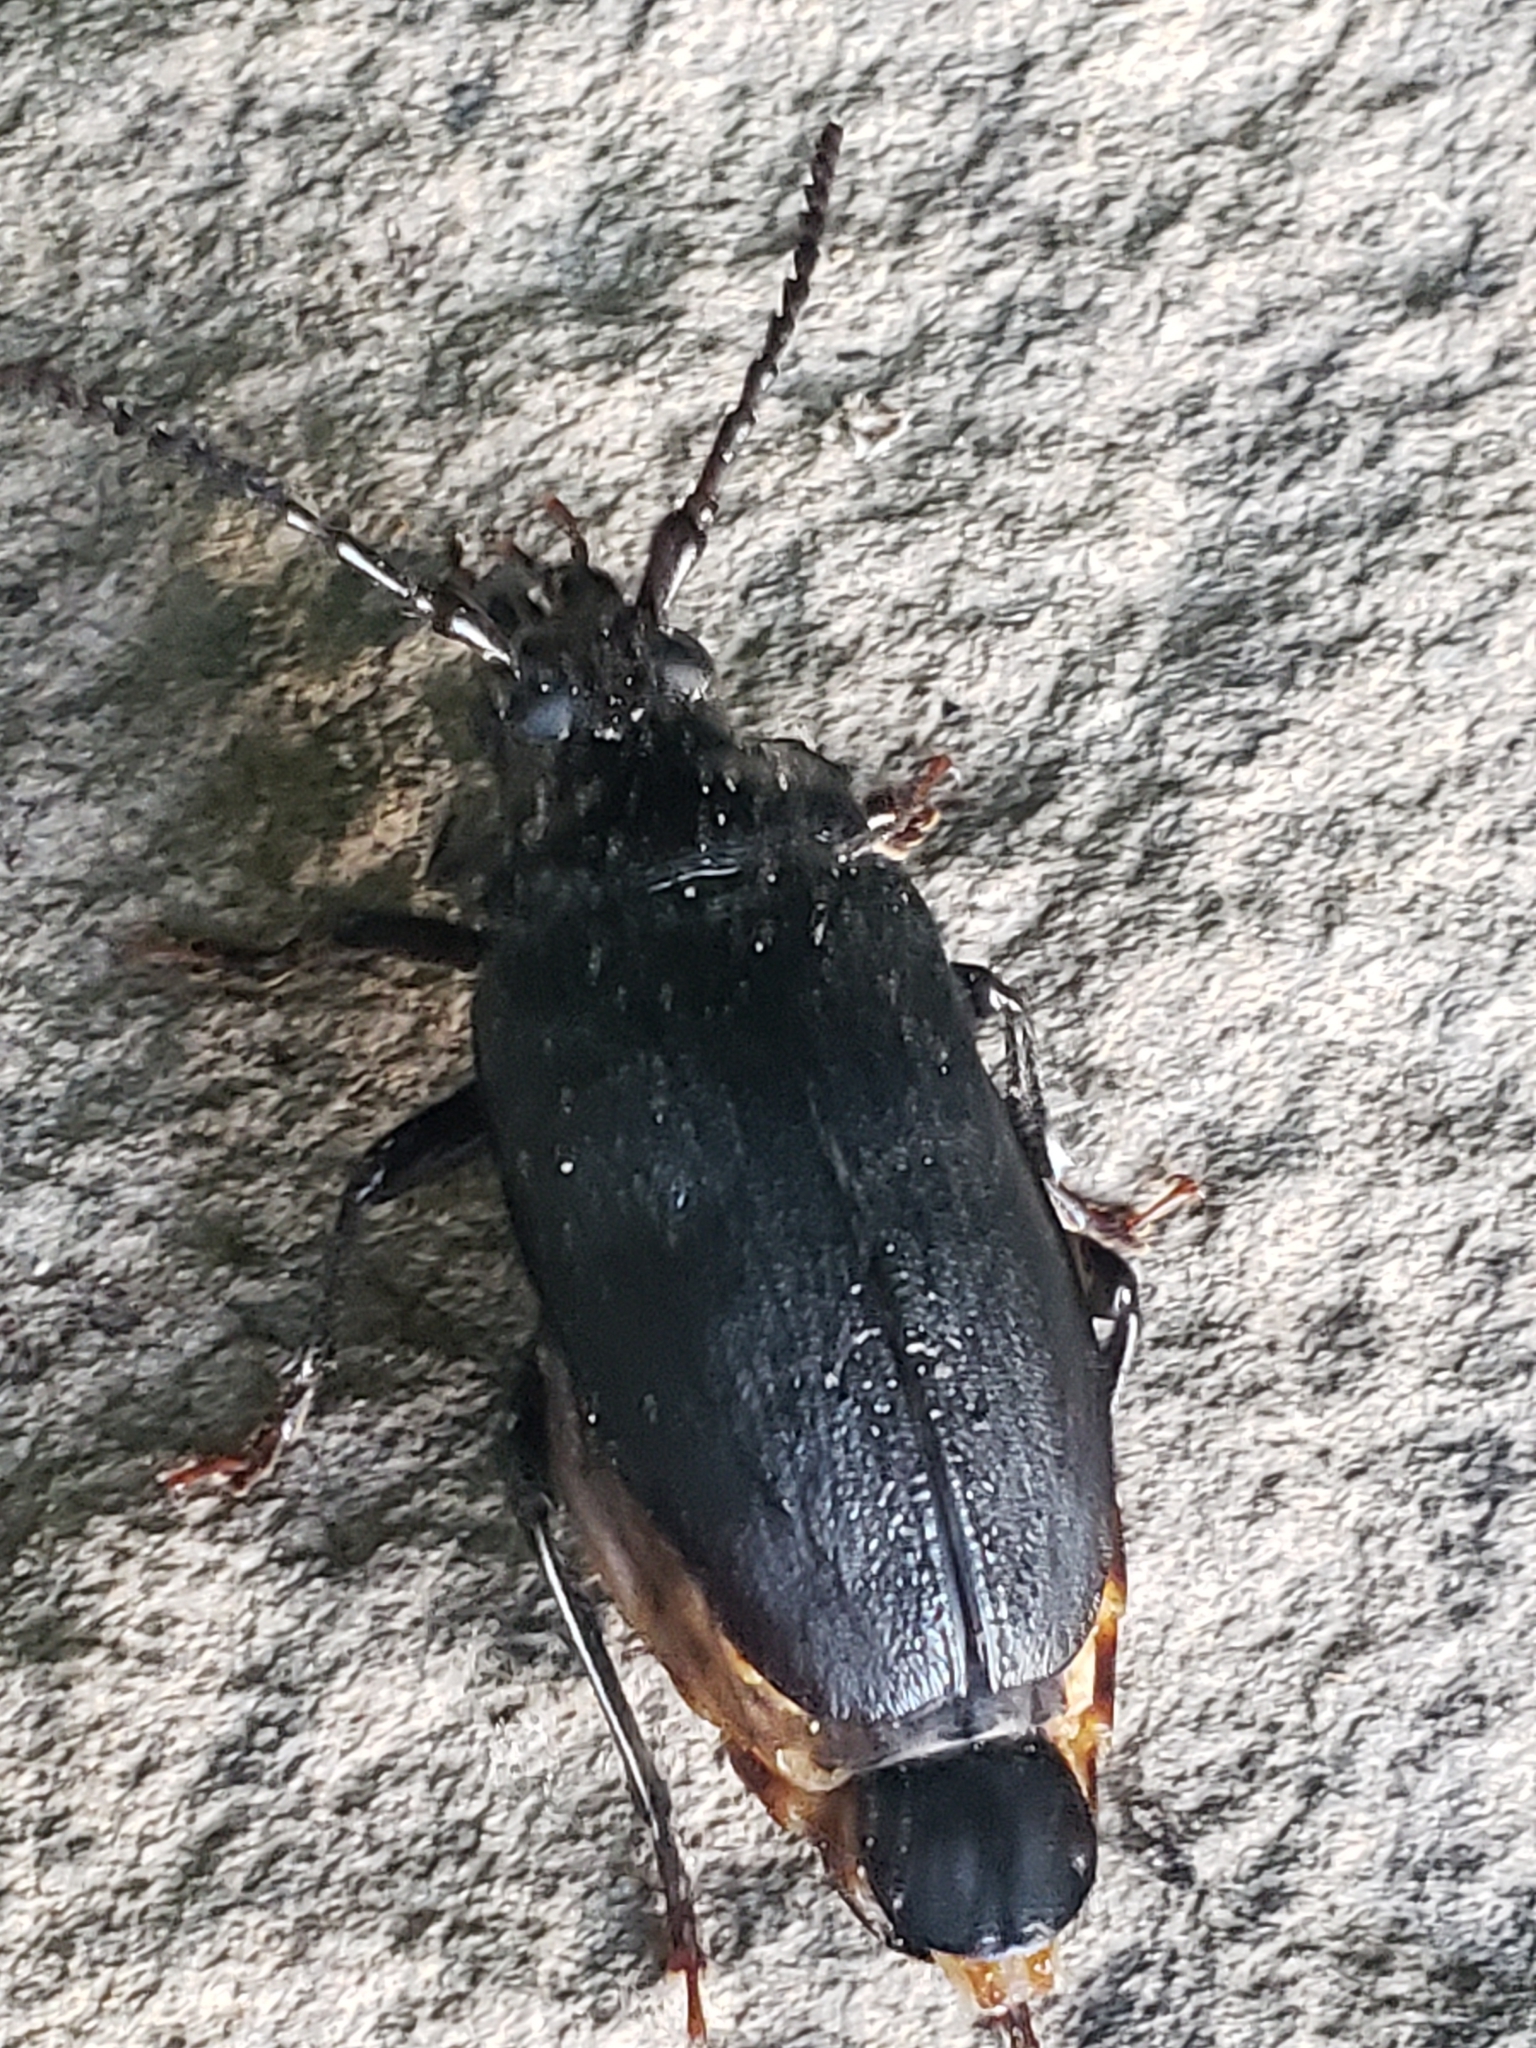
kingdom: Animalia
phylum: Arthropoda
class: Insecta
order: Coleoptera
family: Cerambycidae
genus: Prionus
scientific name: Prionus laticollis
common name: Broad necked prionus
